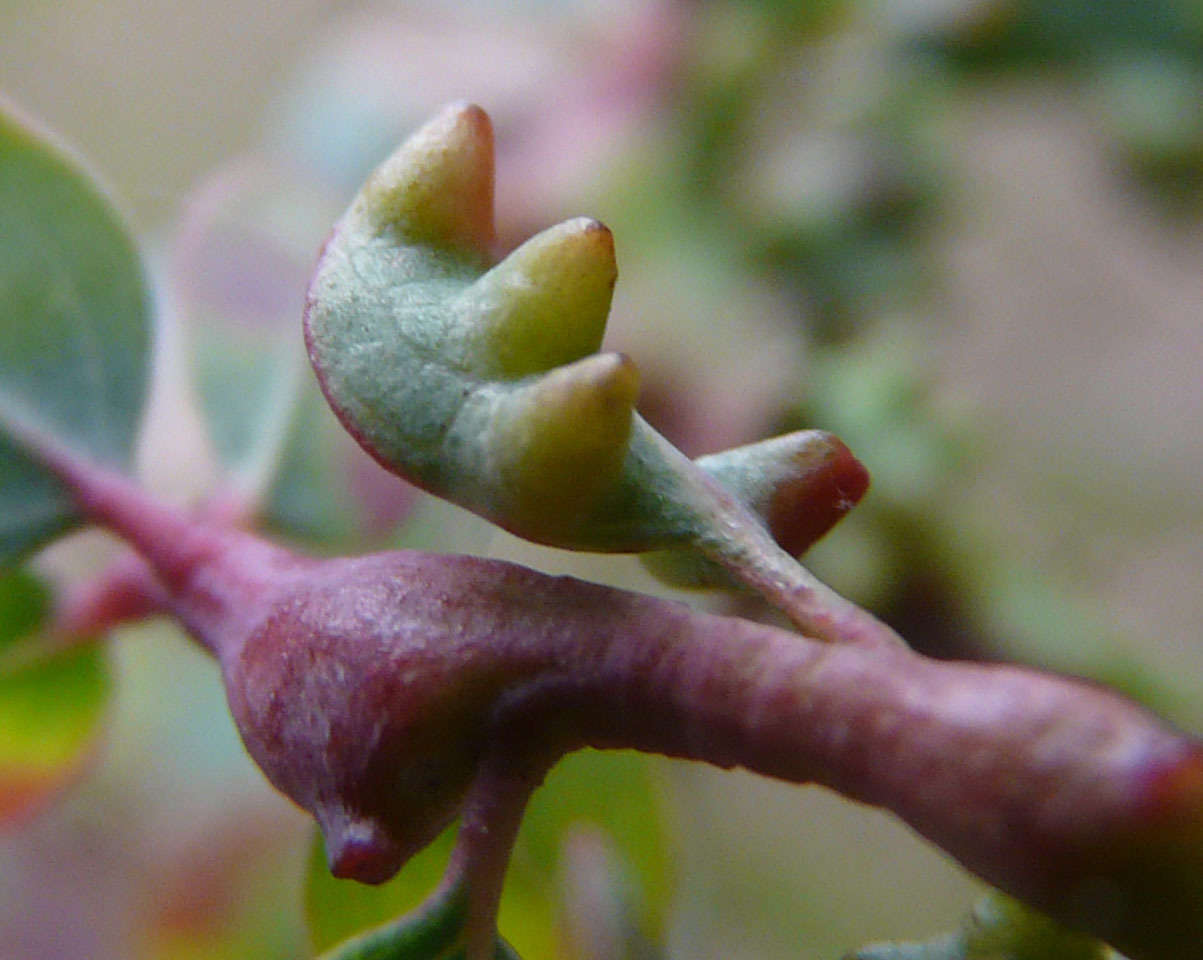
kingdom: Animalia
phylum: Arthropoda
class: Insecta
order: Hemiptera
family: Diaspididae
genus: Maskellia
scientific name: Maskellia globosa
